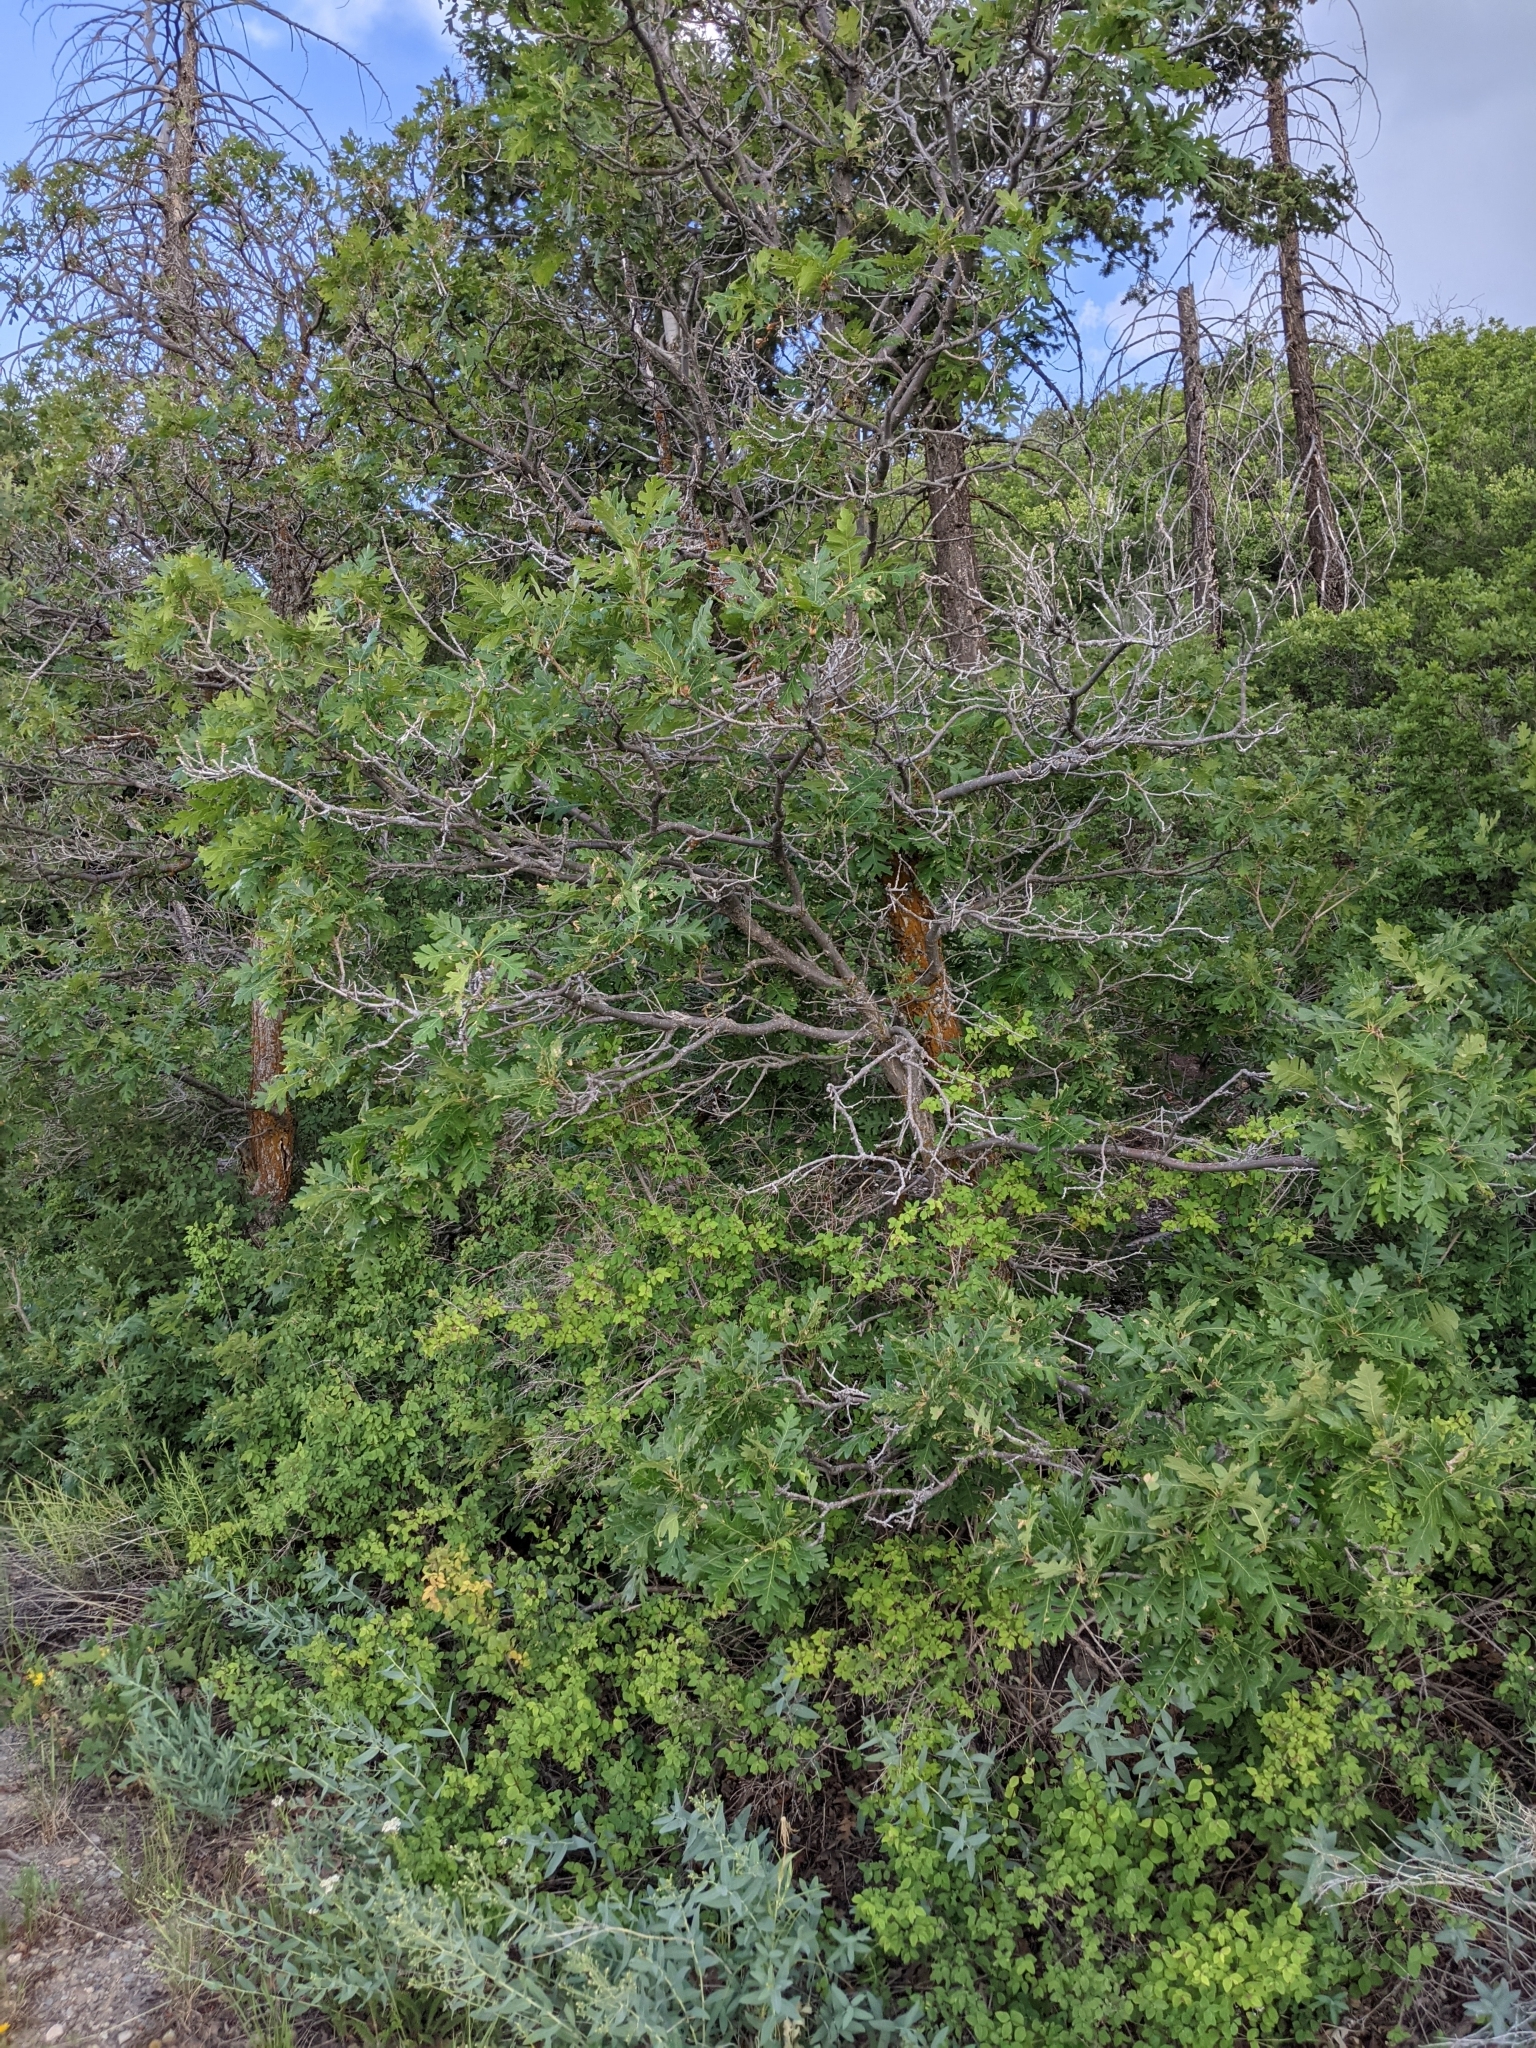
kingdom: Plantae
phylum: Tracheophyta
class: Magnoliopsida
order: Fagales
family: Fagaceae
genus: Quercus
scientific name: Quercus gambelii
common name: Gambel oak
